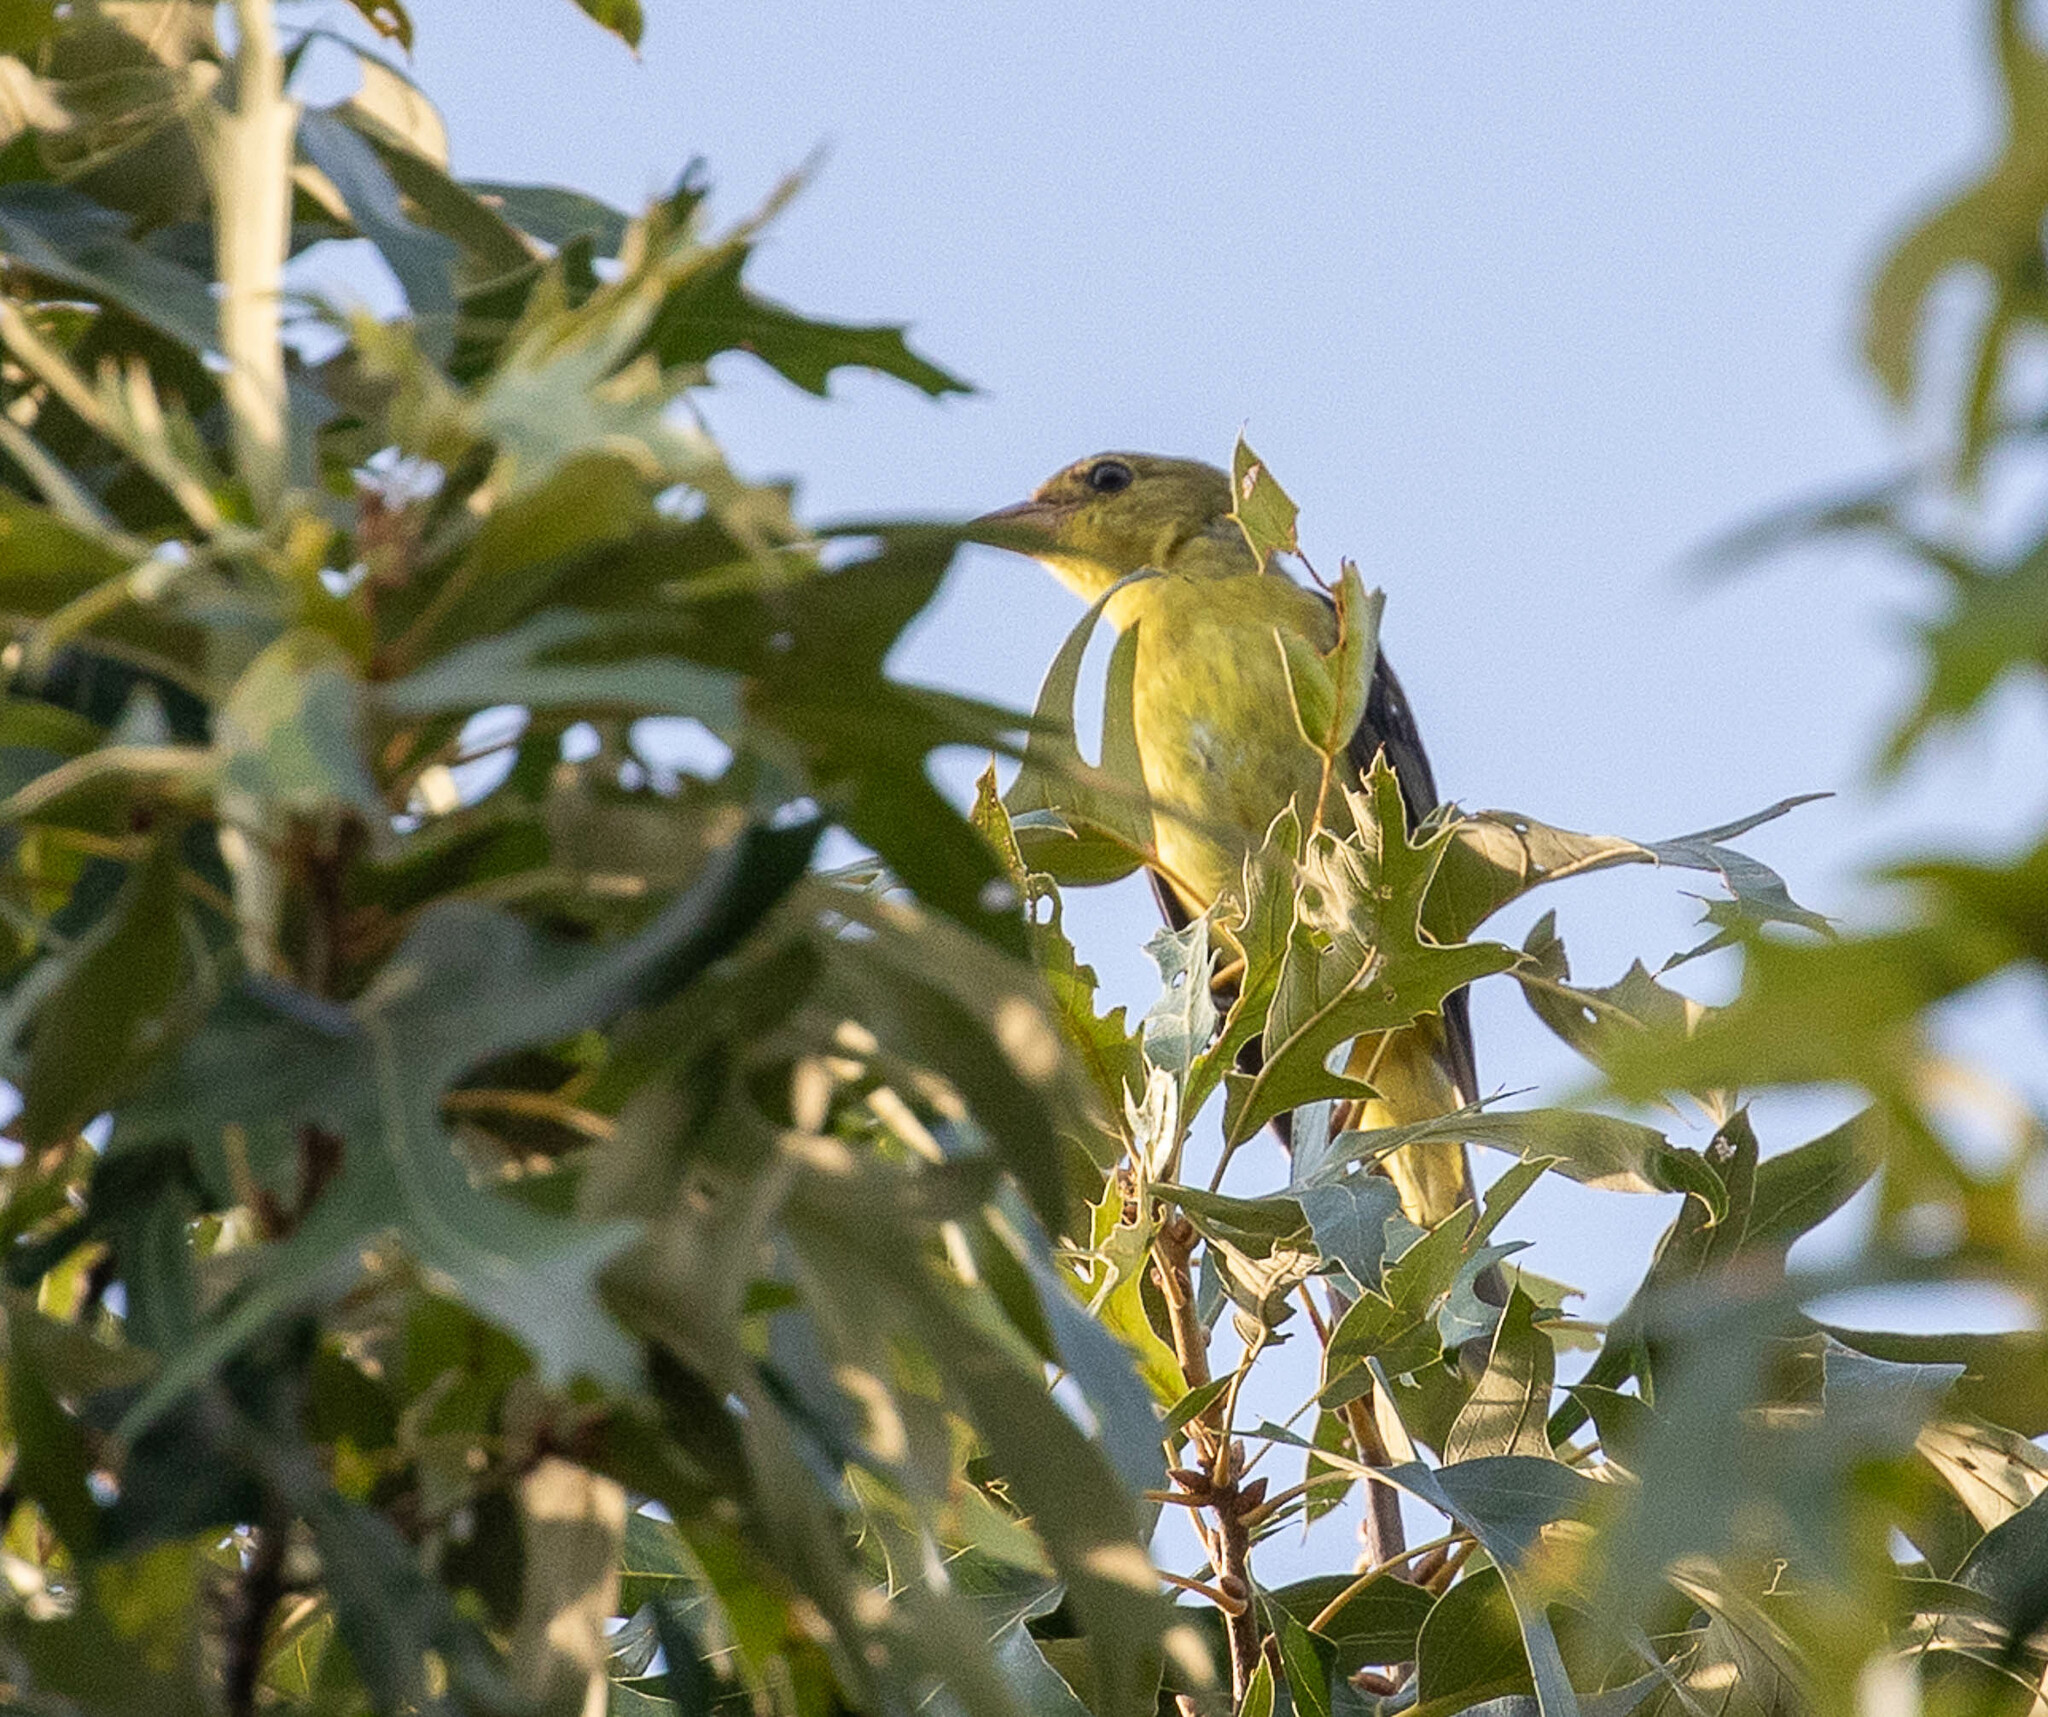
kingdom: Animalia
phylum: Chordata
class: Aves
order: Passeriformes
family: Cardinalidae
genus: Piranga
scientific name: Piranga olivacea
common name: Scarlet tanager
